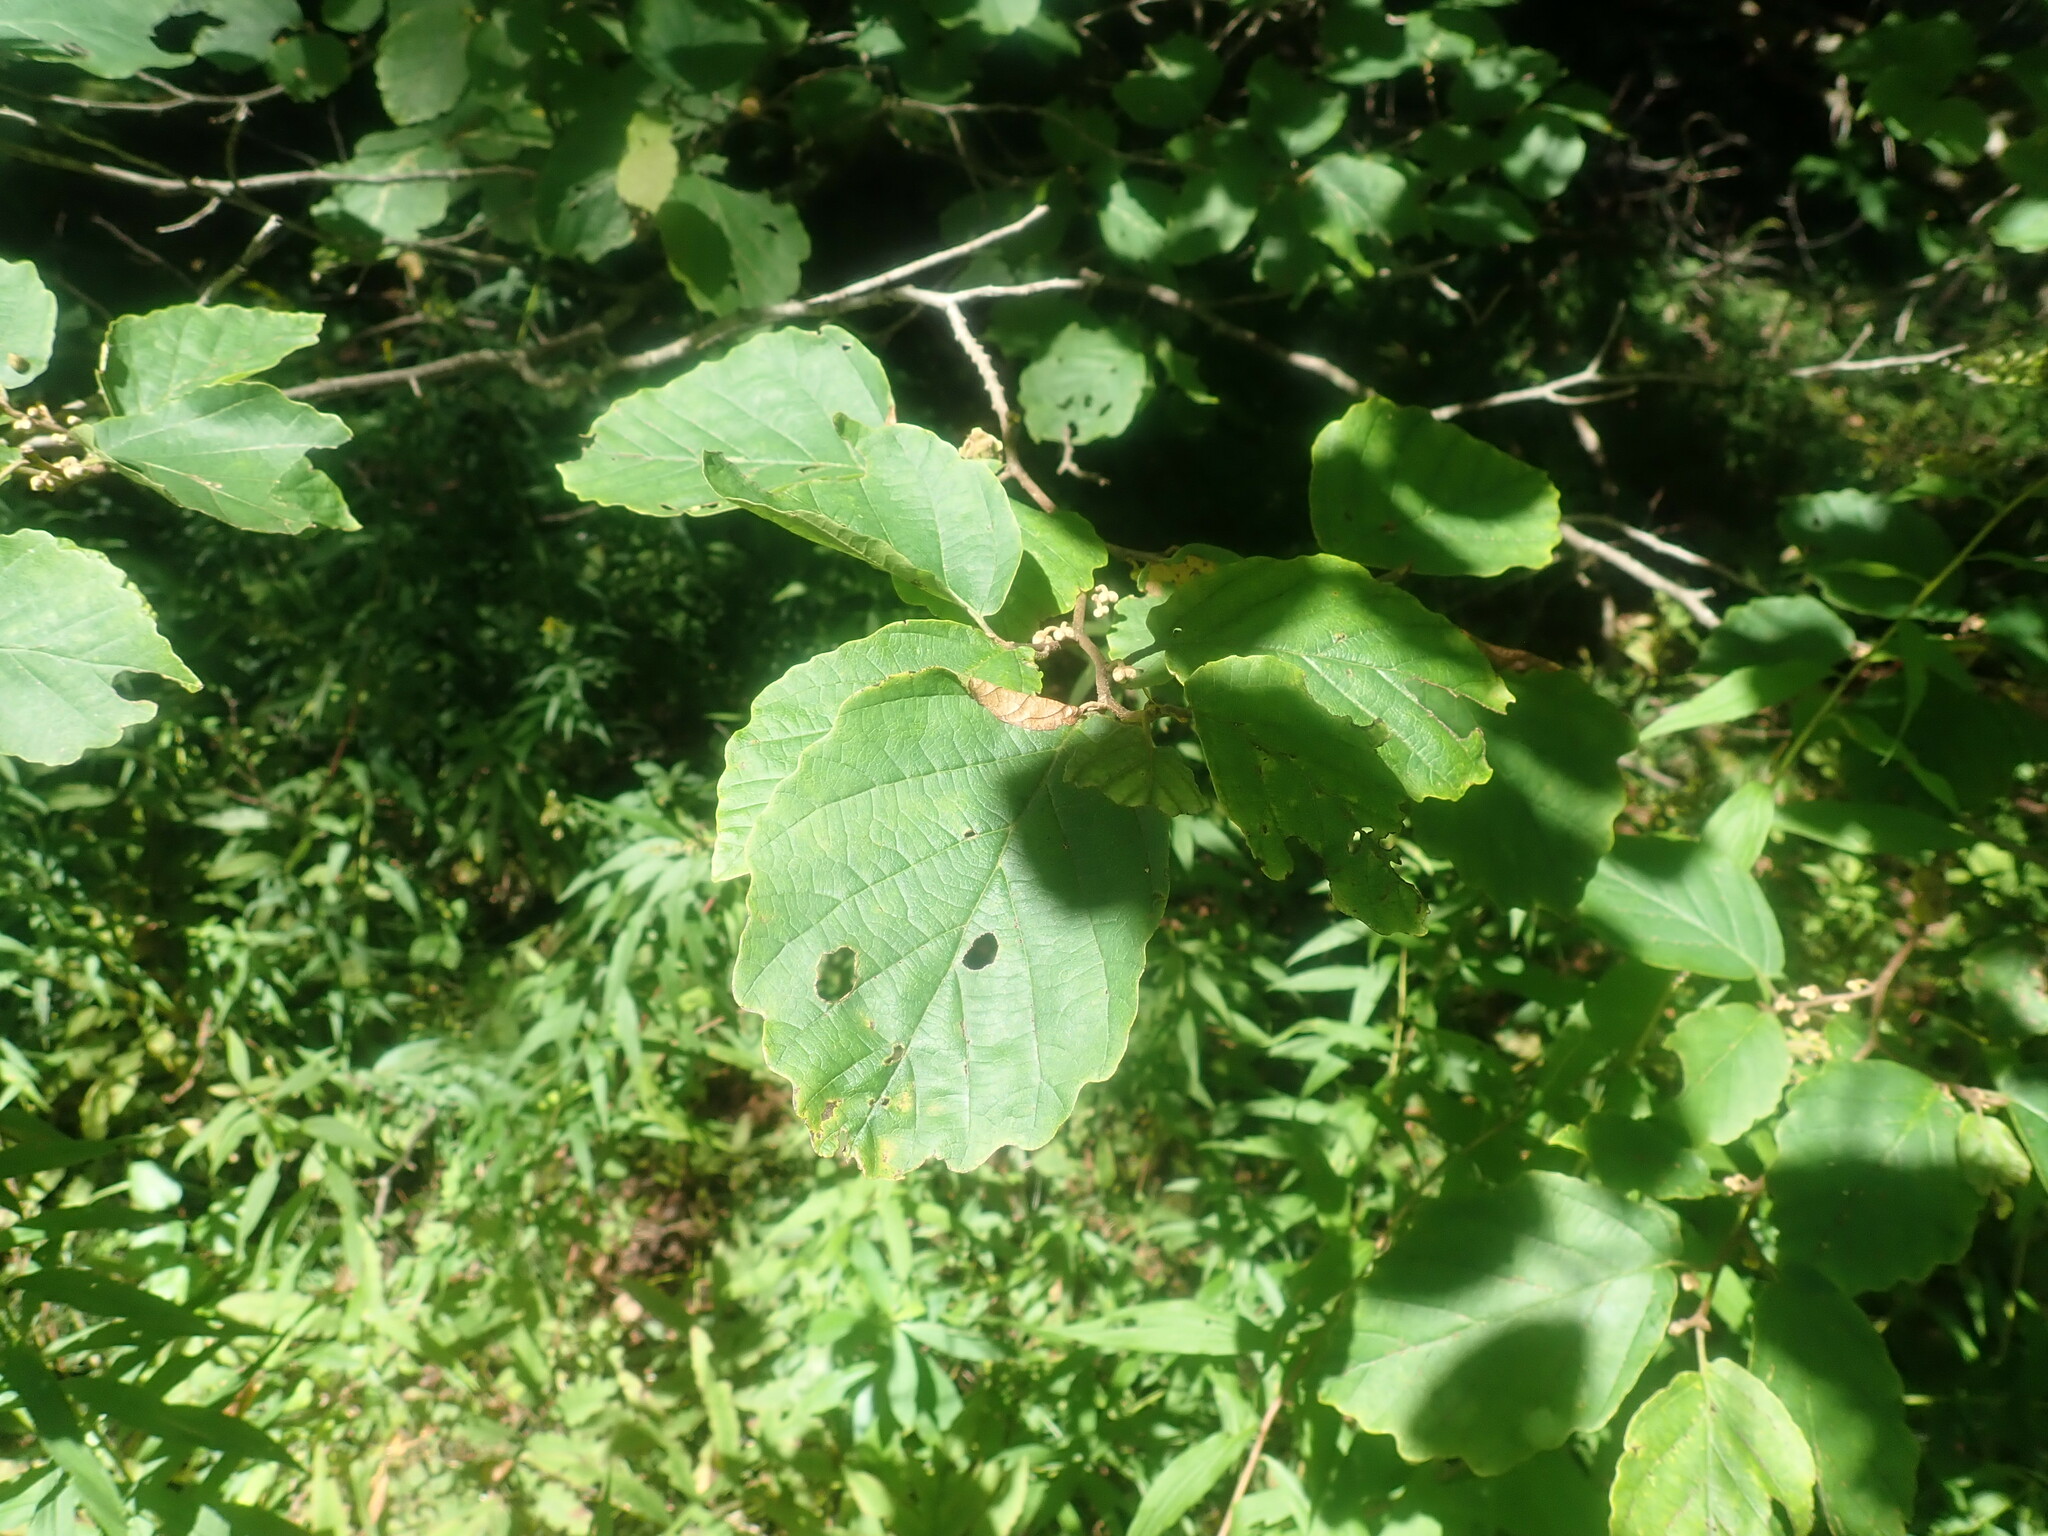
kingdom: Plantae
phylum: Tracheophyta
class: Magnoliopsida
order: Saxifragales
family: Hamamelidaceae
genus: Hamamelis
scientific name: Hamamelis virginiana
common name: Witch-hazel
